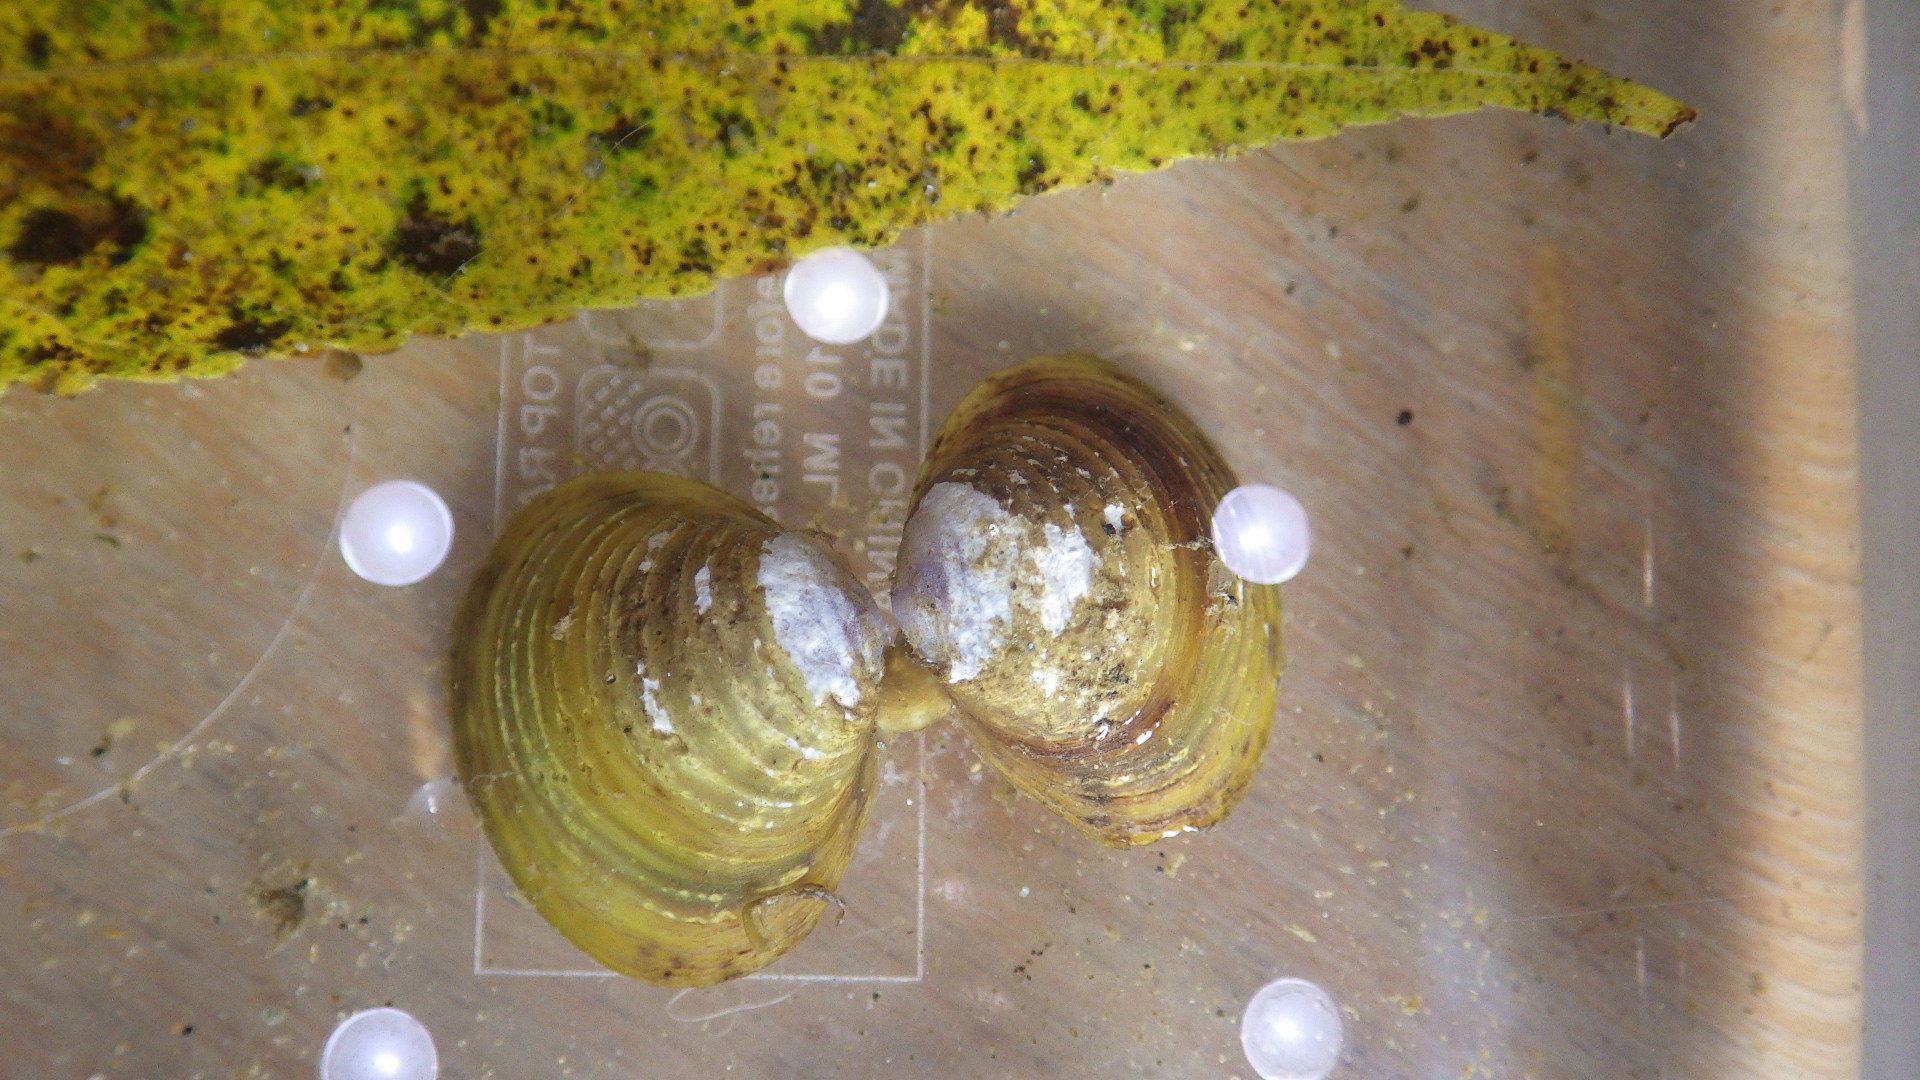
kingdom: Animalia
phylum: Mollusca
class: Bivalvia
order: Venerida
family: Cyrenidae
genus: Corbicula
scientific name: Corbicula fluminea
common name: Asian clam
